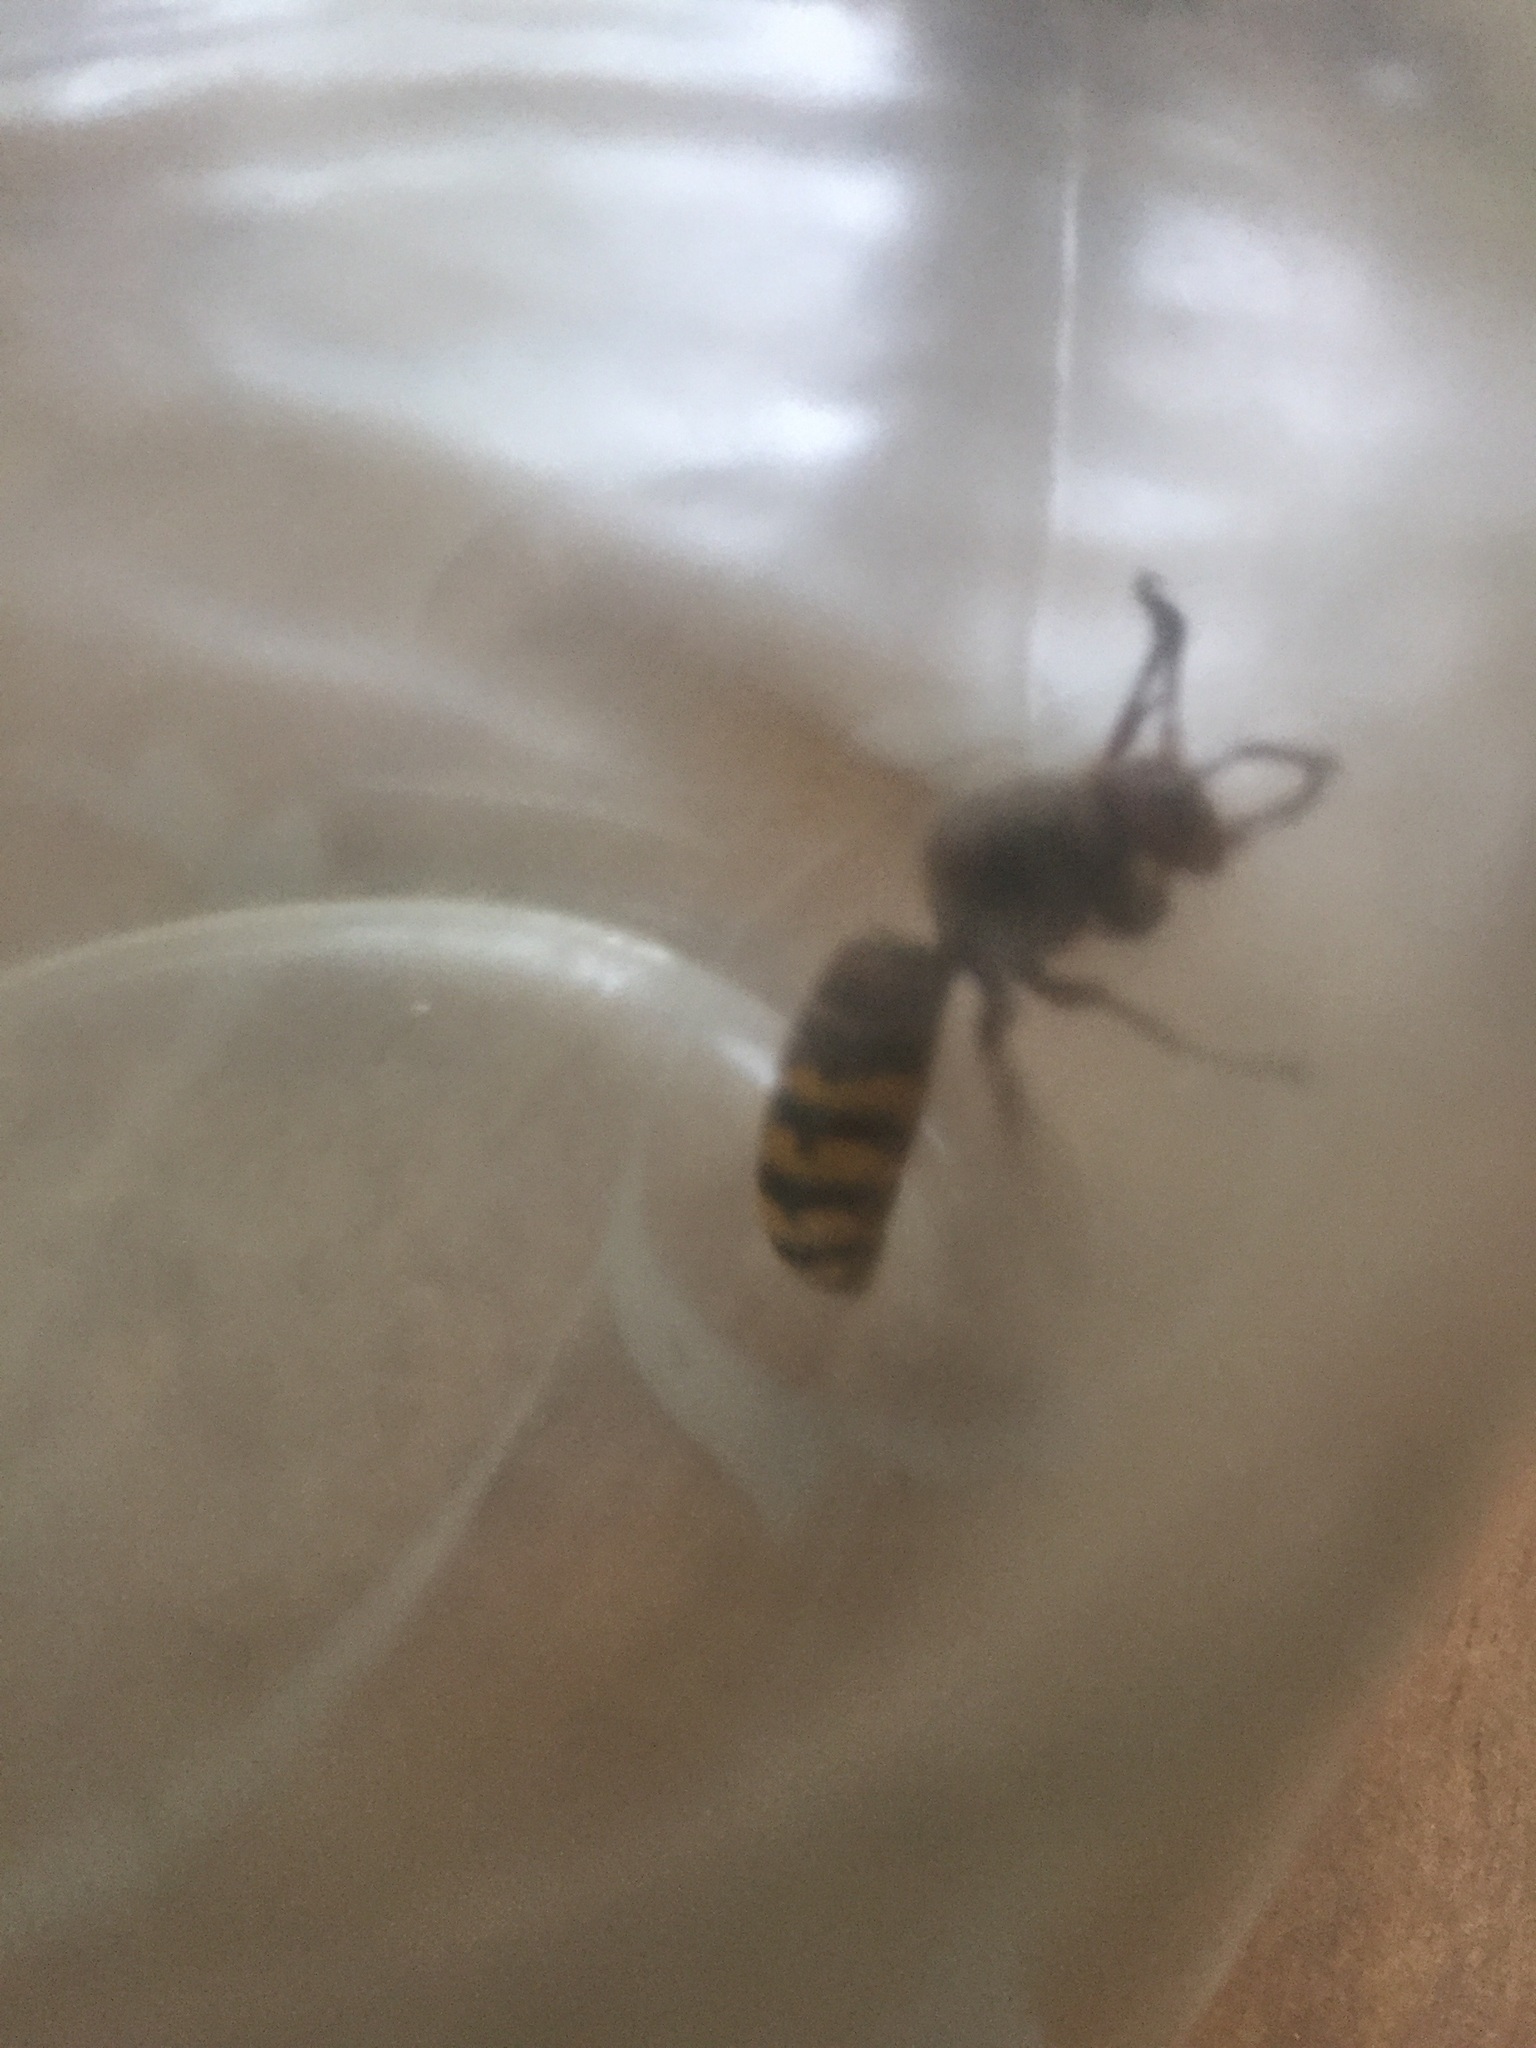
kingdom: Animalia
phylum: Arthropoda
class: Insecta
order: Hymenoptera
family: Vespidae
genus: Vespa
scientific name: Vespa crabro
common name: Hornet
